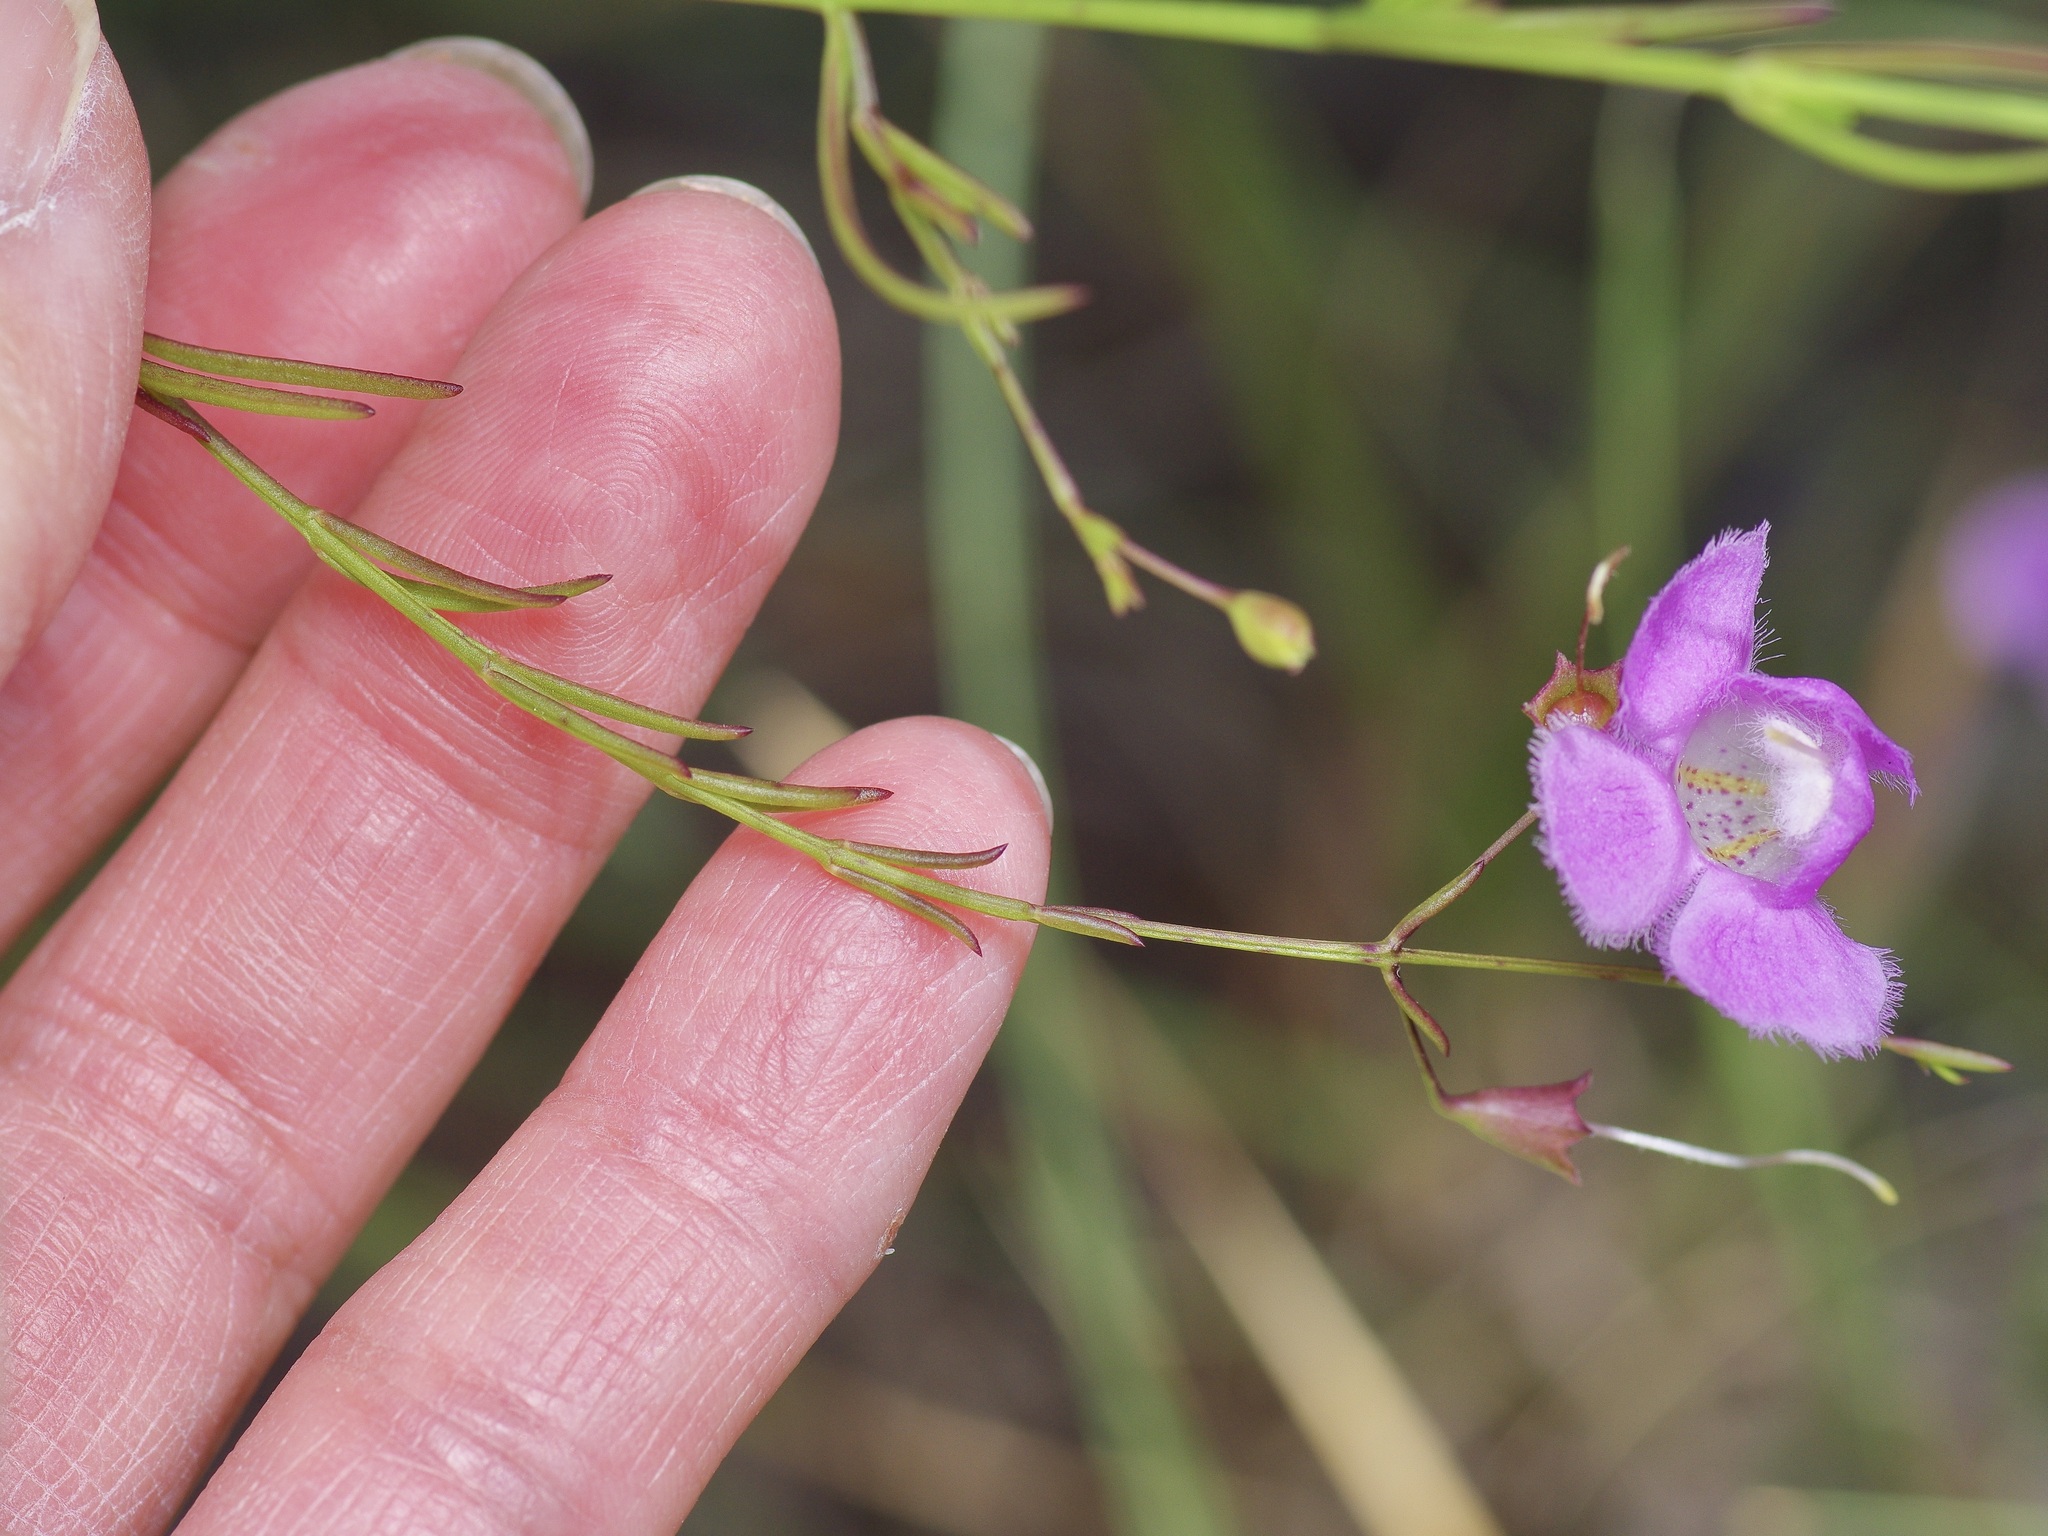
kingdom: Plantae
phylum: Tracheophyta
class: Magnoliopsida
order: Lamiales
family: Orobanchaceae
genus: Agalinis
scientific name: Agalinis edwardsiana
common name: Plateau-gerardia
